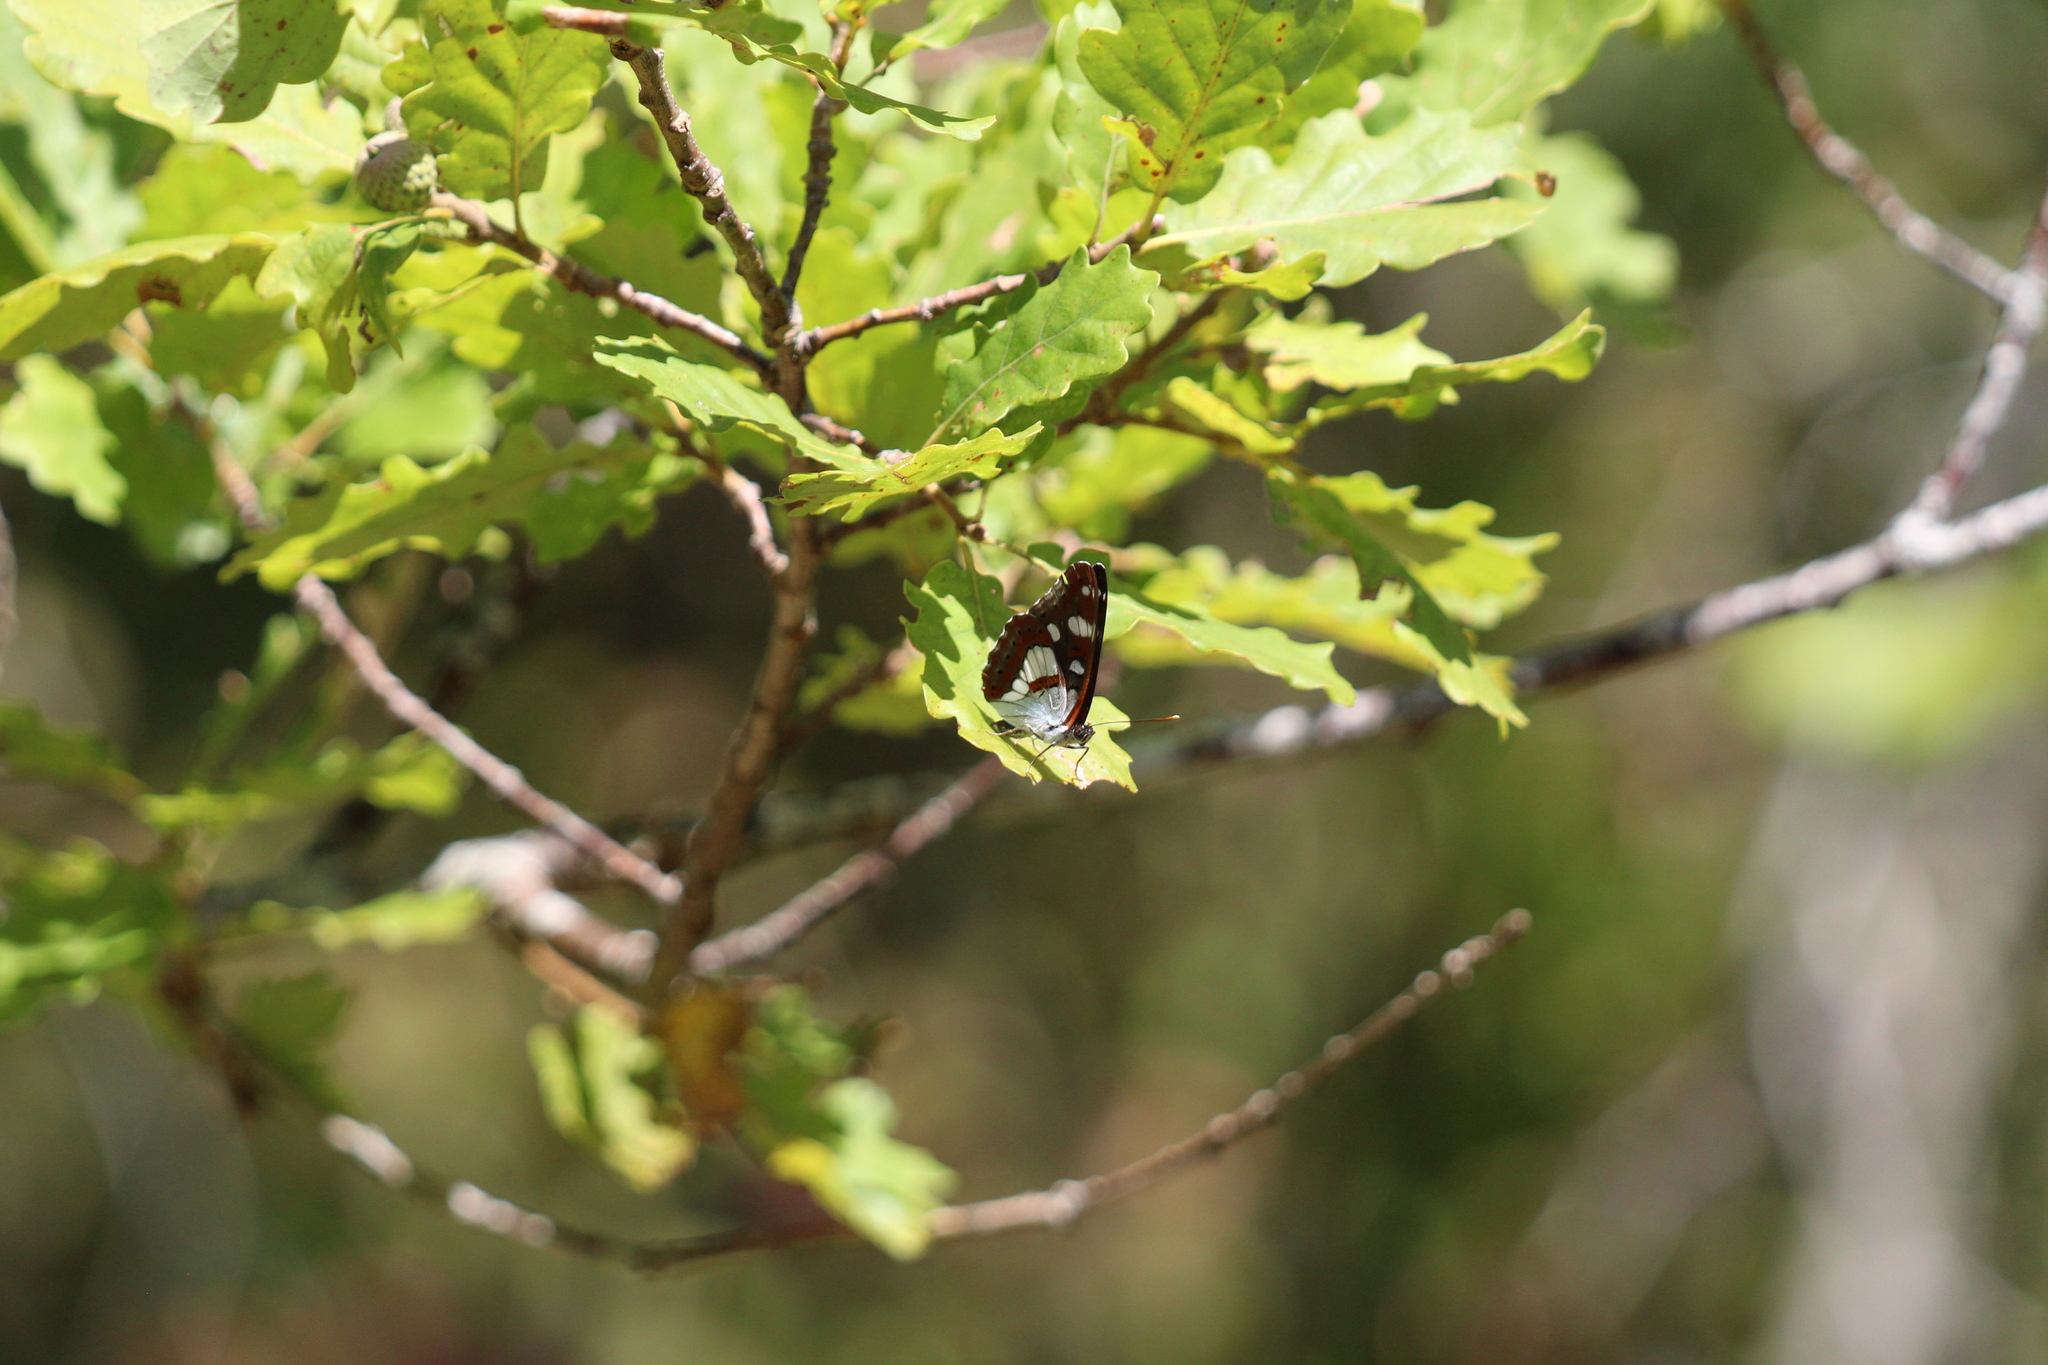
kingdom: Animalia
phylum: Arthropoda
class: Insecta
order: Lepidoptera
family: Nymphalidae
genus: Limenitis
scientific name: Limenitis reducta
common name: Southern white admiral
